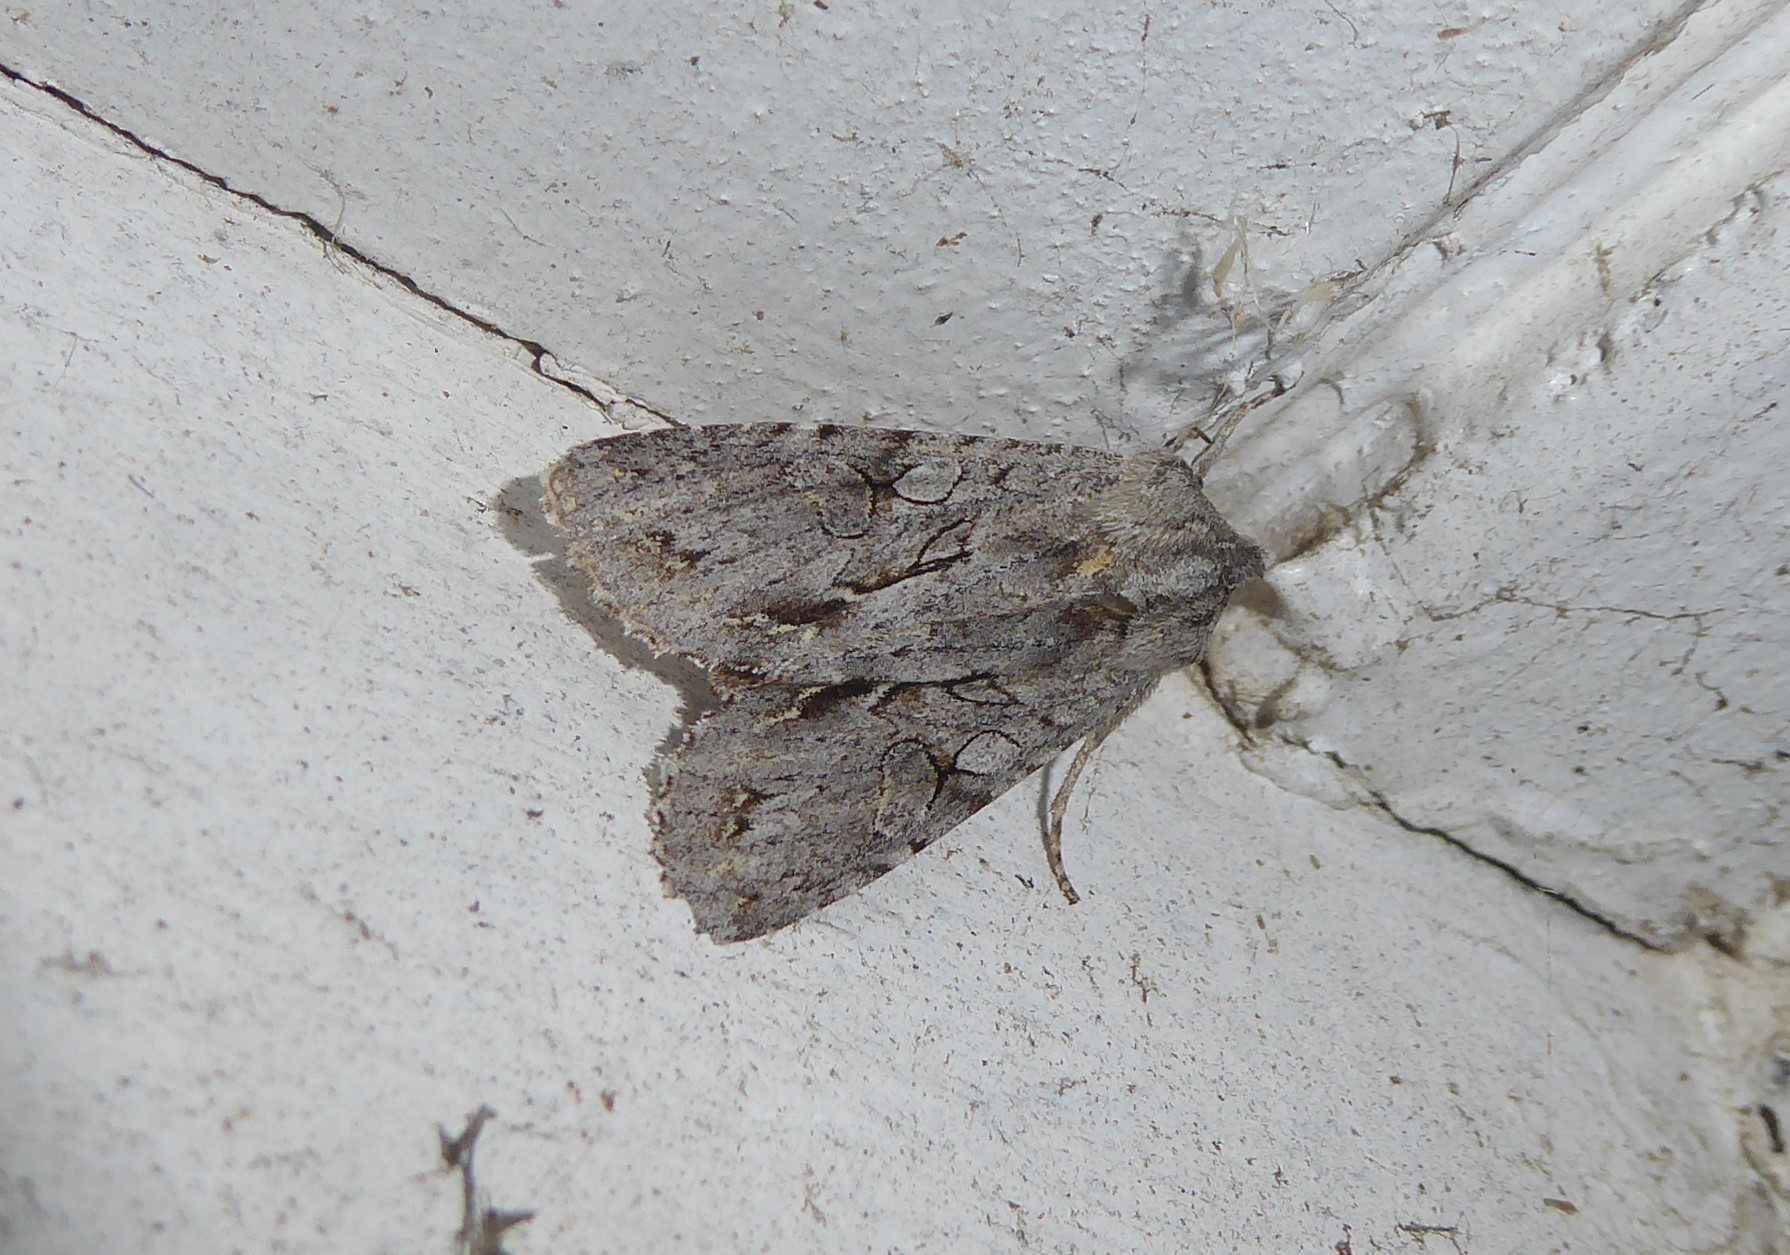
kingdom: Animalia
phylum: Arthropoda
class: Insecta
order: Lepidoptera
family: Noctuidae
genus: Ichneutica
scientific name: Ichneutica
